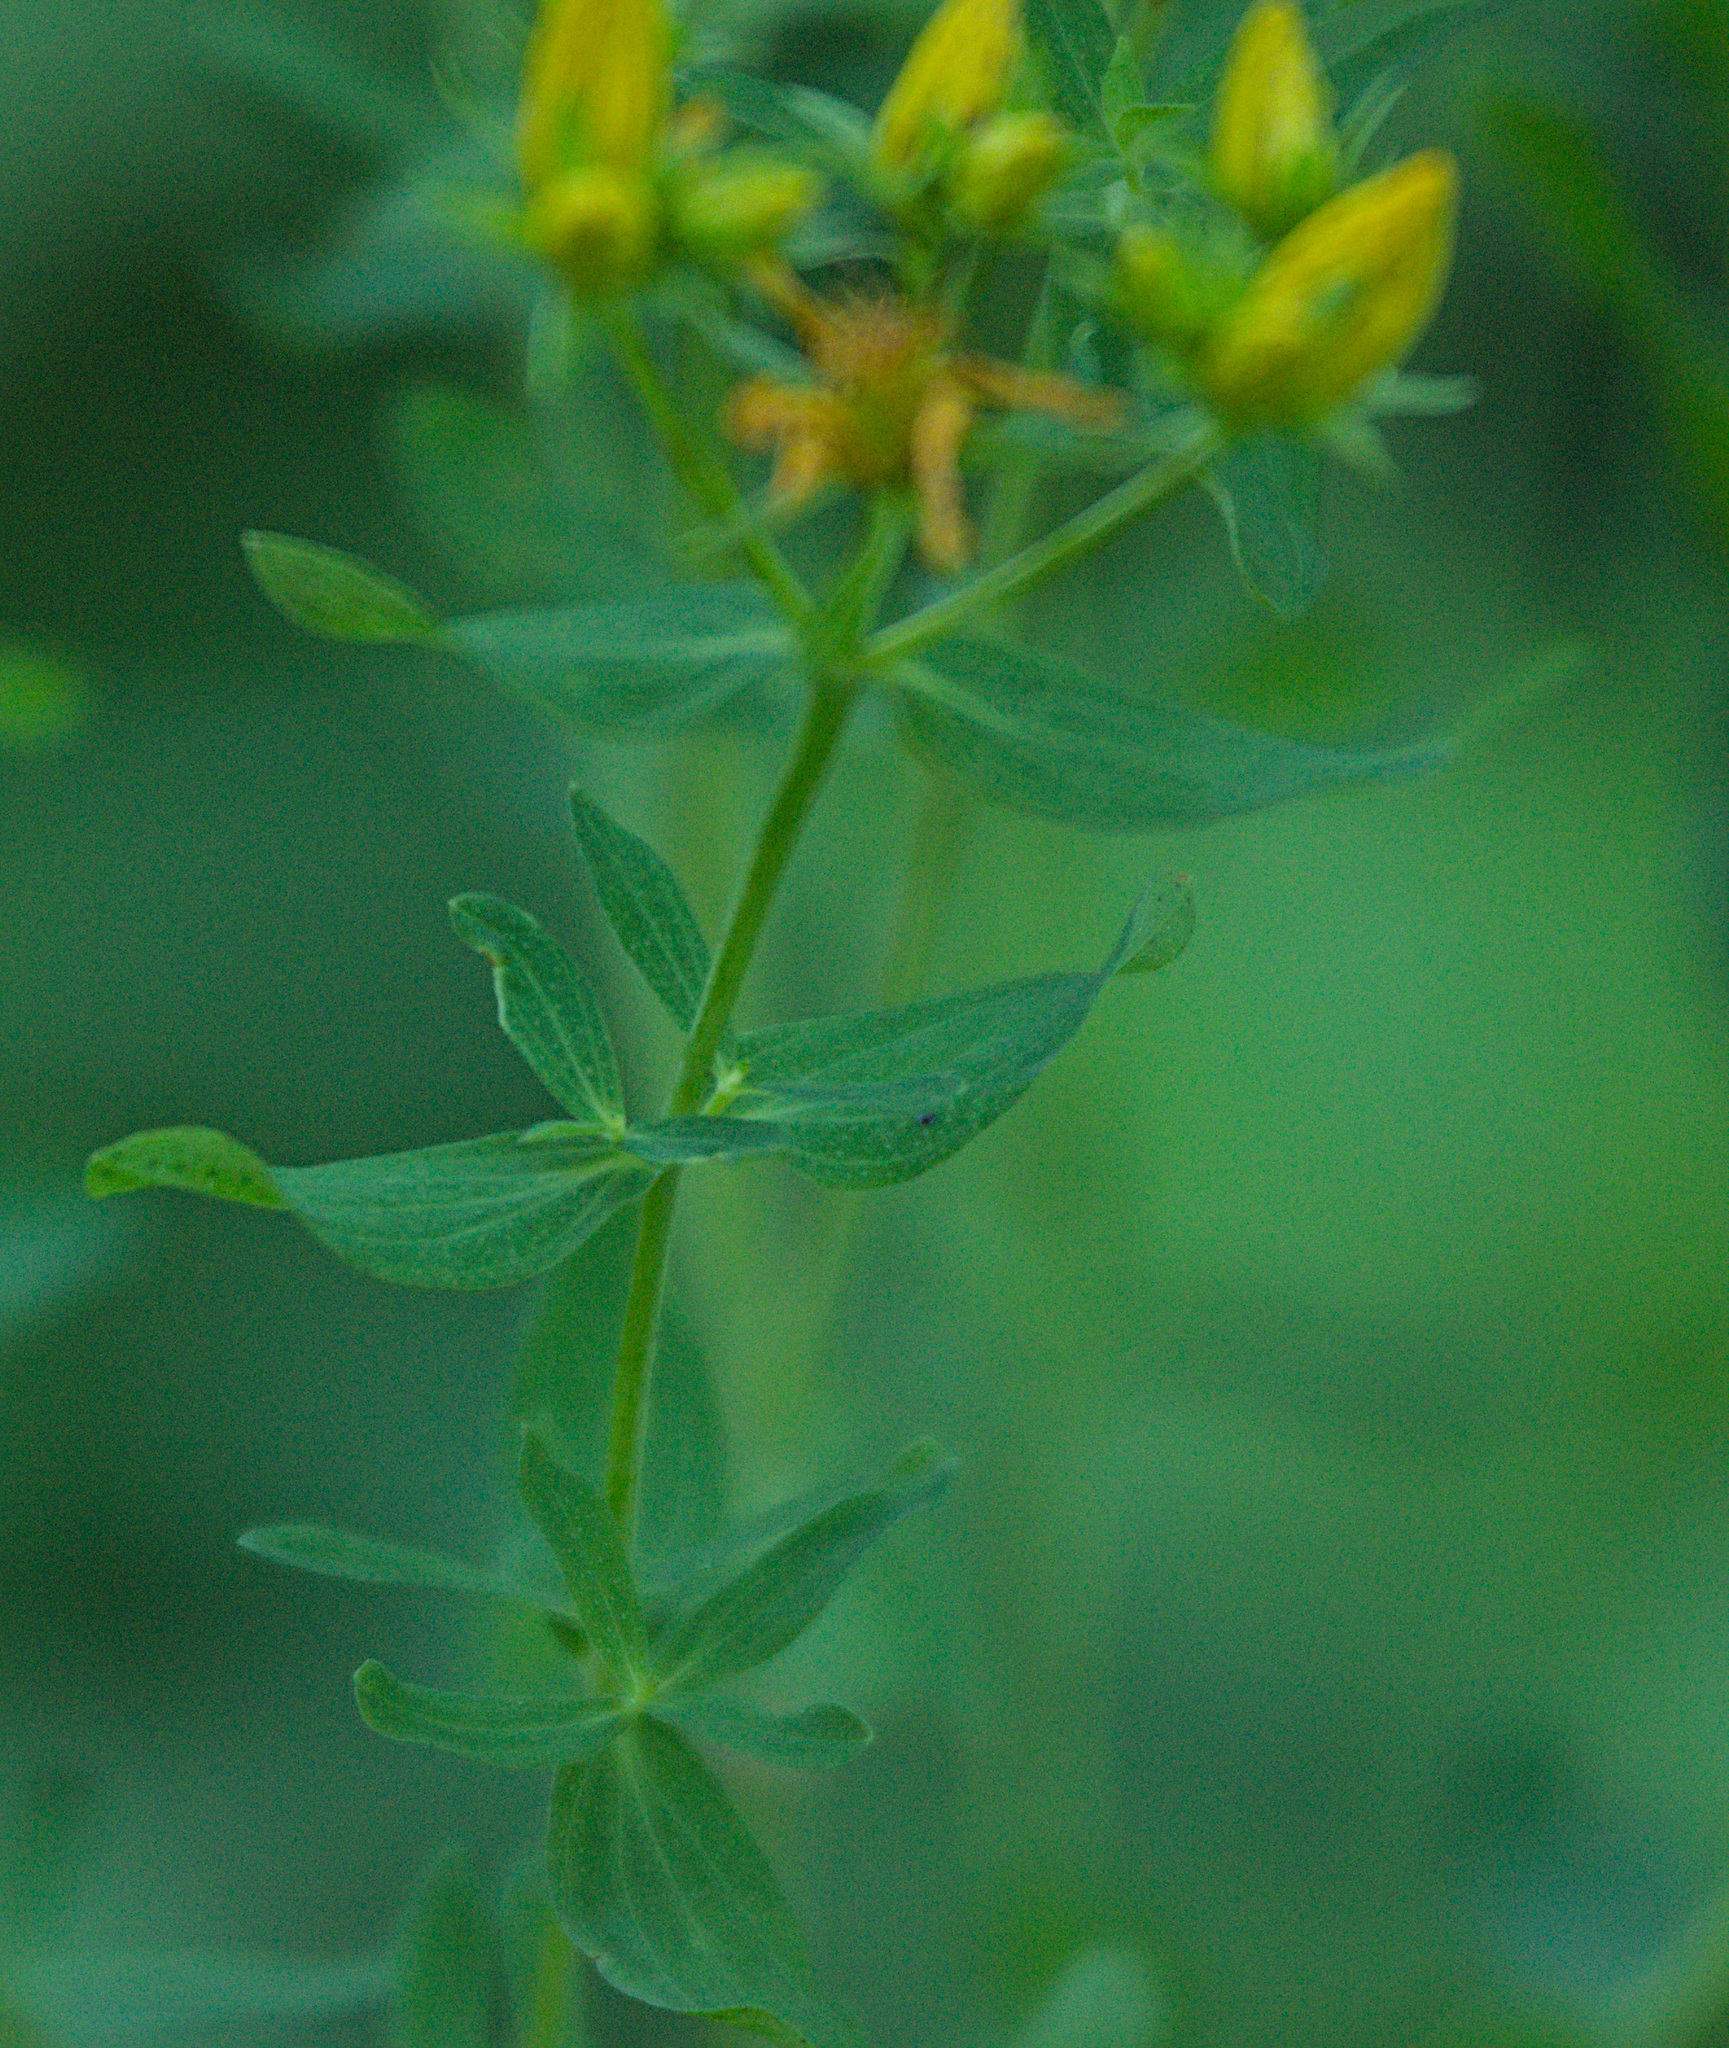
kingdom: Plantae
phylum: Tracheophyta
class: Magnoliopsida
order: Malpighiales
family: Hypericaceae
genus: Hypericum
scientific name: Hypericum perforatum
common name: Common st. johnswort
